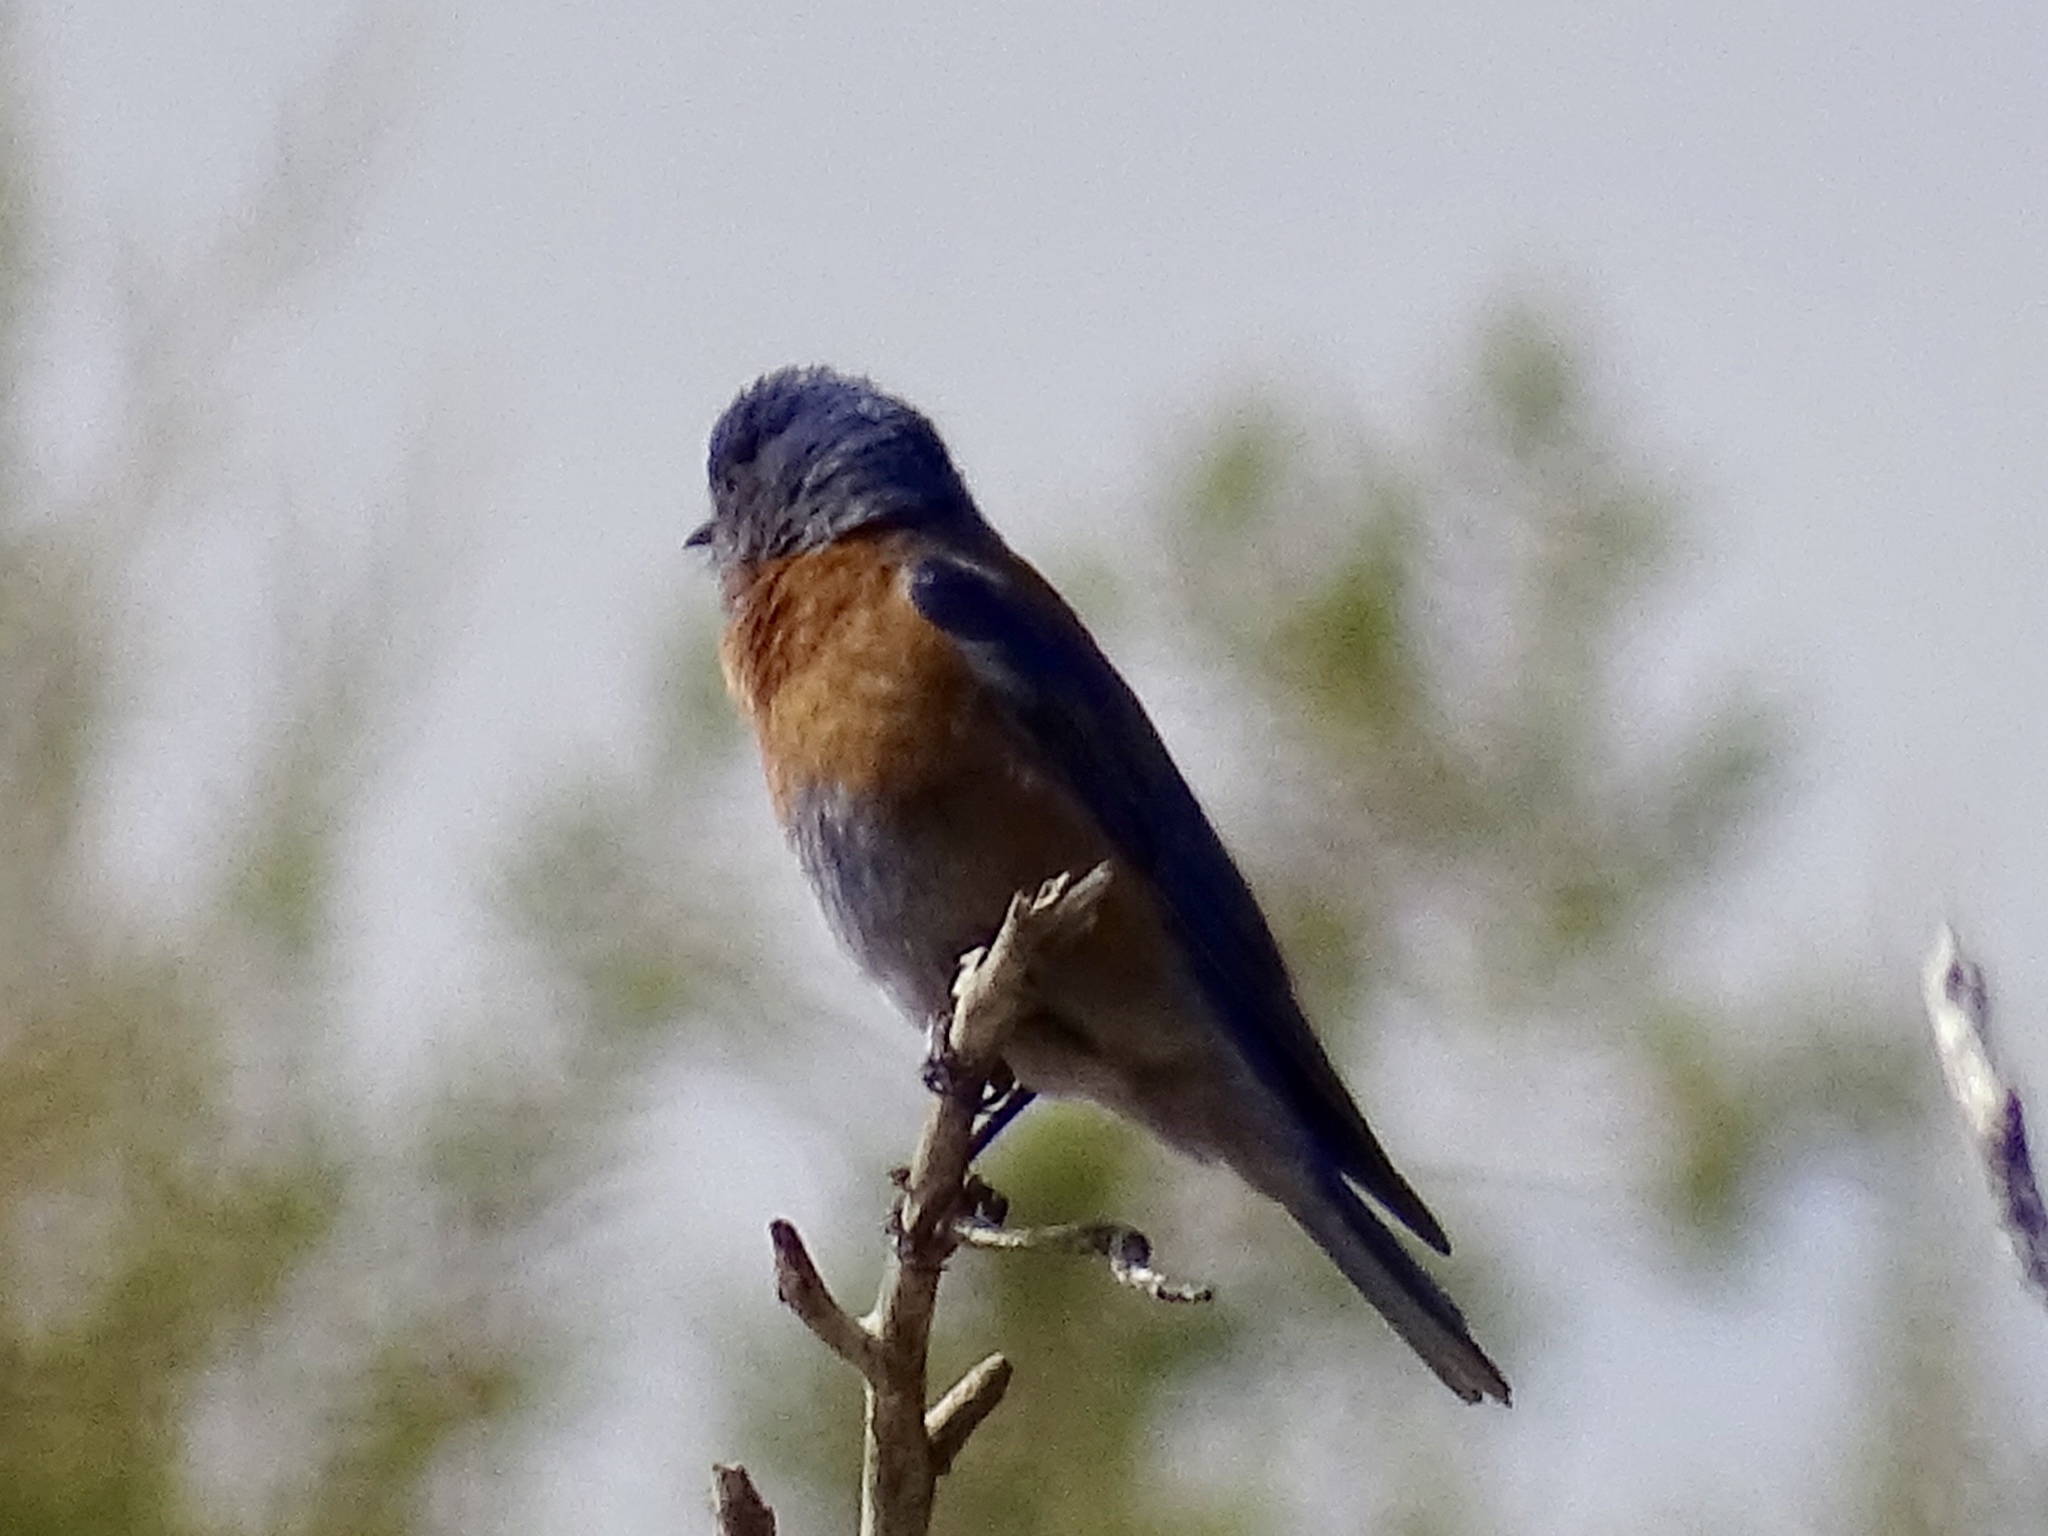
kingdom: Animalia
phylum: Chordata
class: Aves
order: Passeriformes
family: Turdidae
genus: Sialia
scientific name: Sialia mexicana
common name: Western bluebird
